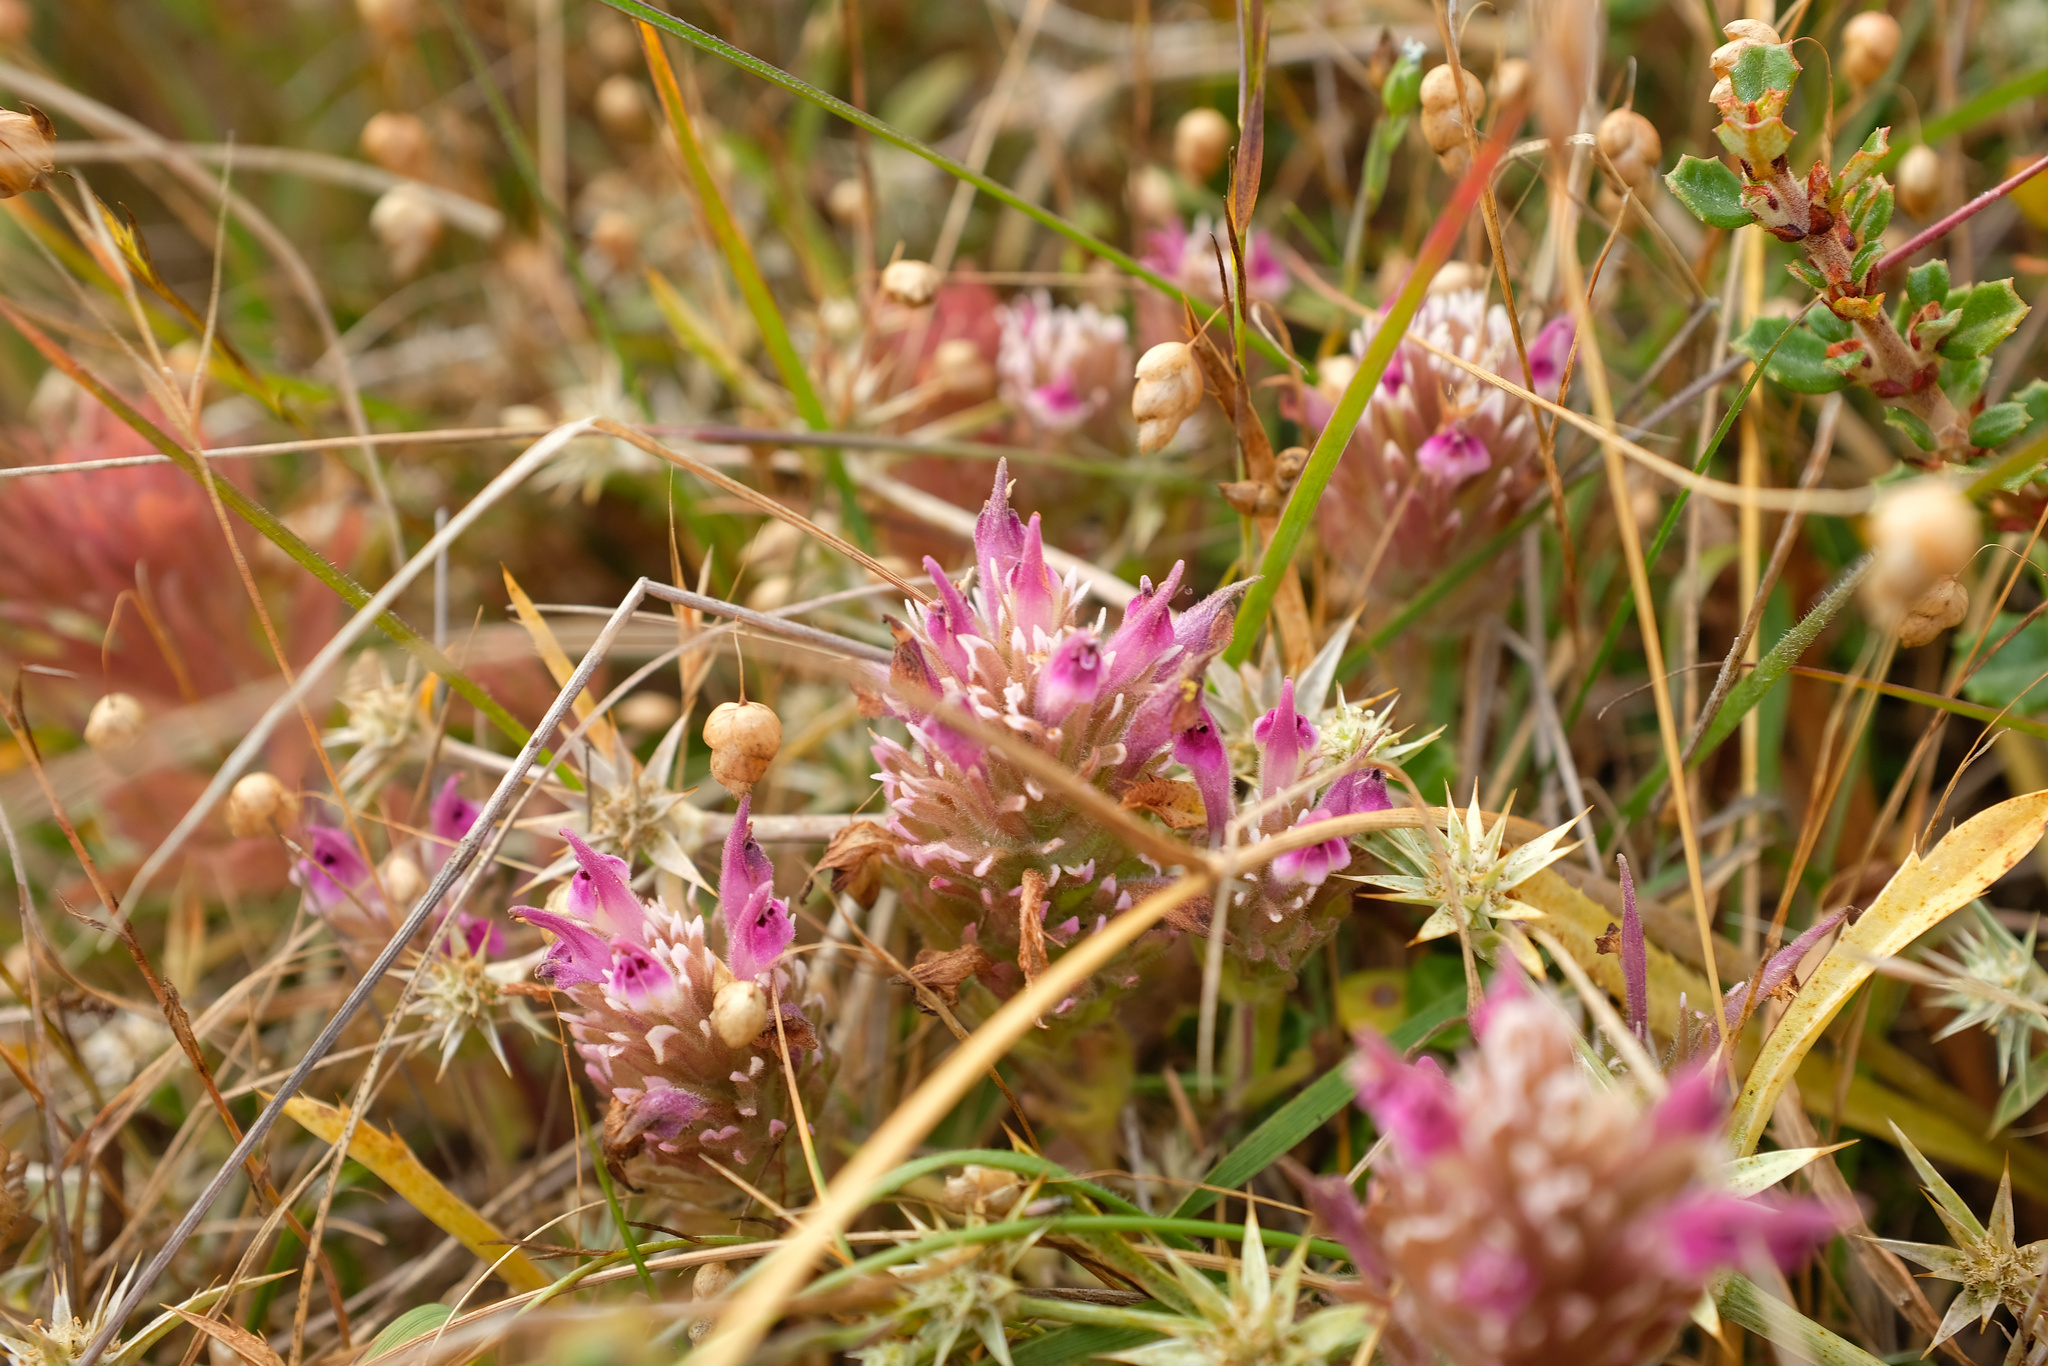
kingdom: Plantae
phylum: Tracheophyta
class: Magnoliopsida
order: Lamiales
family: Orobanchaceae
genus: Castilleja
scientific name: Castilleja ambigua
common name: Johnny-nip
